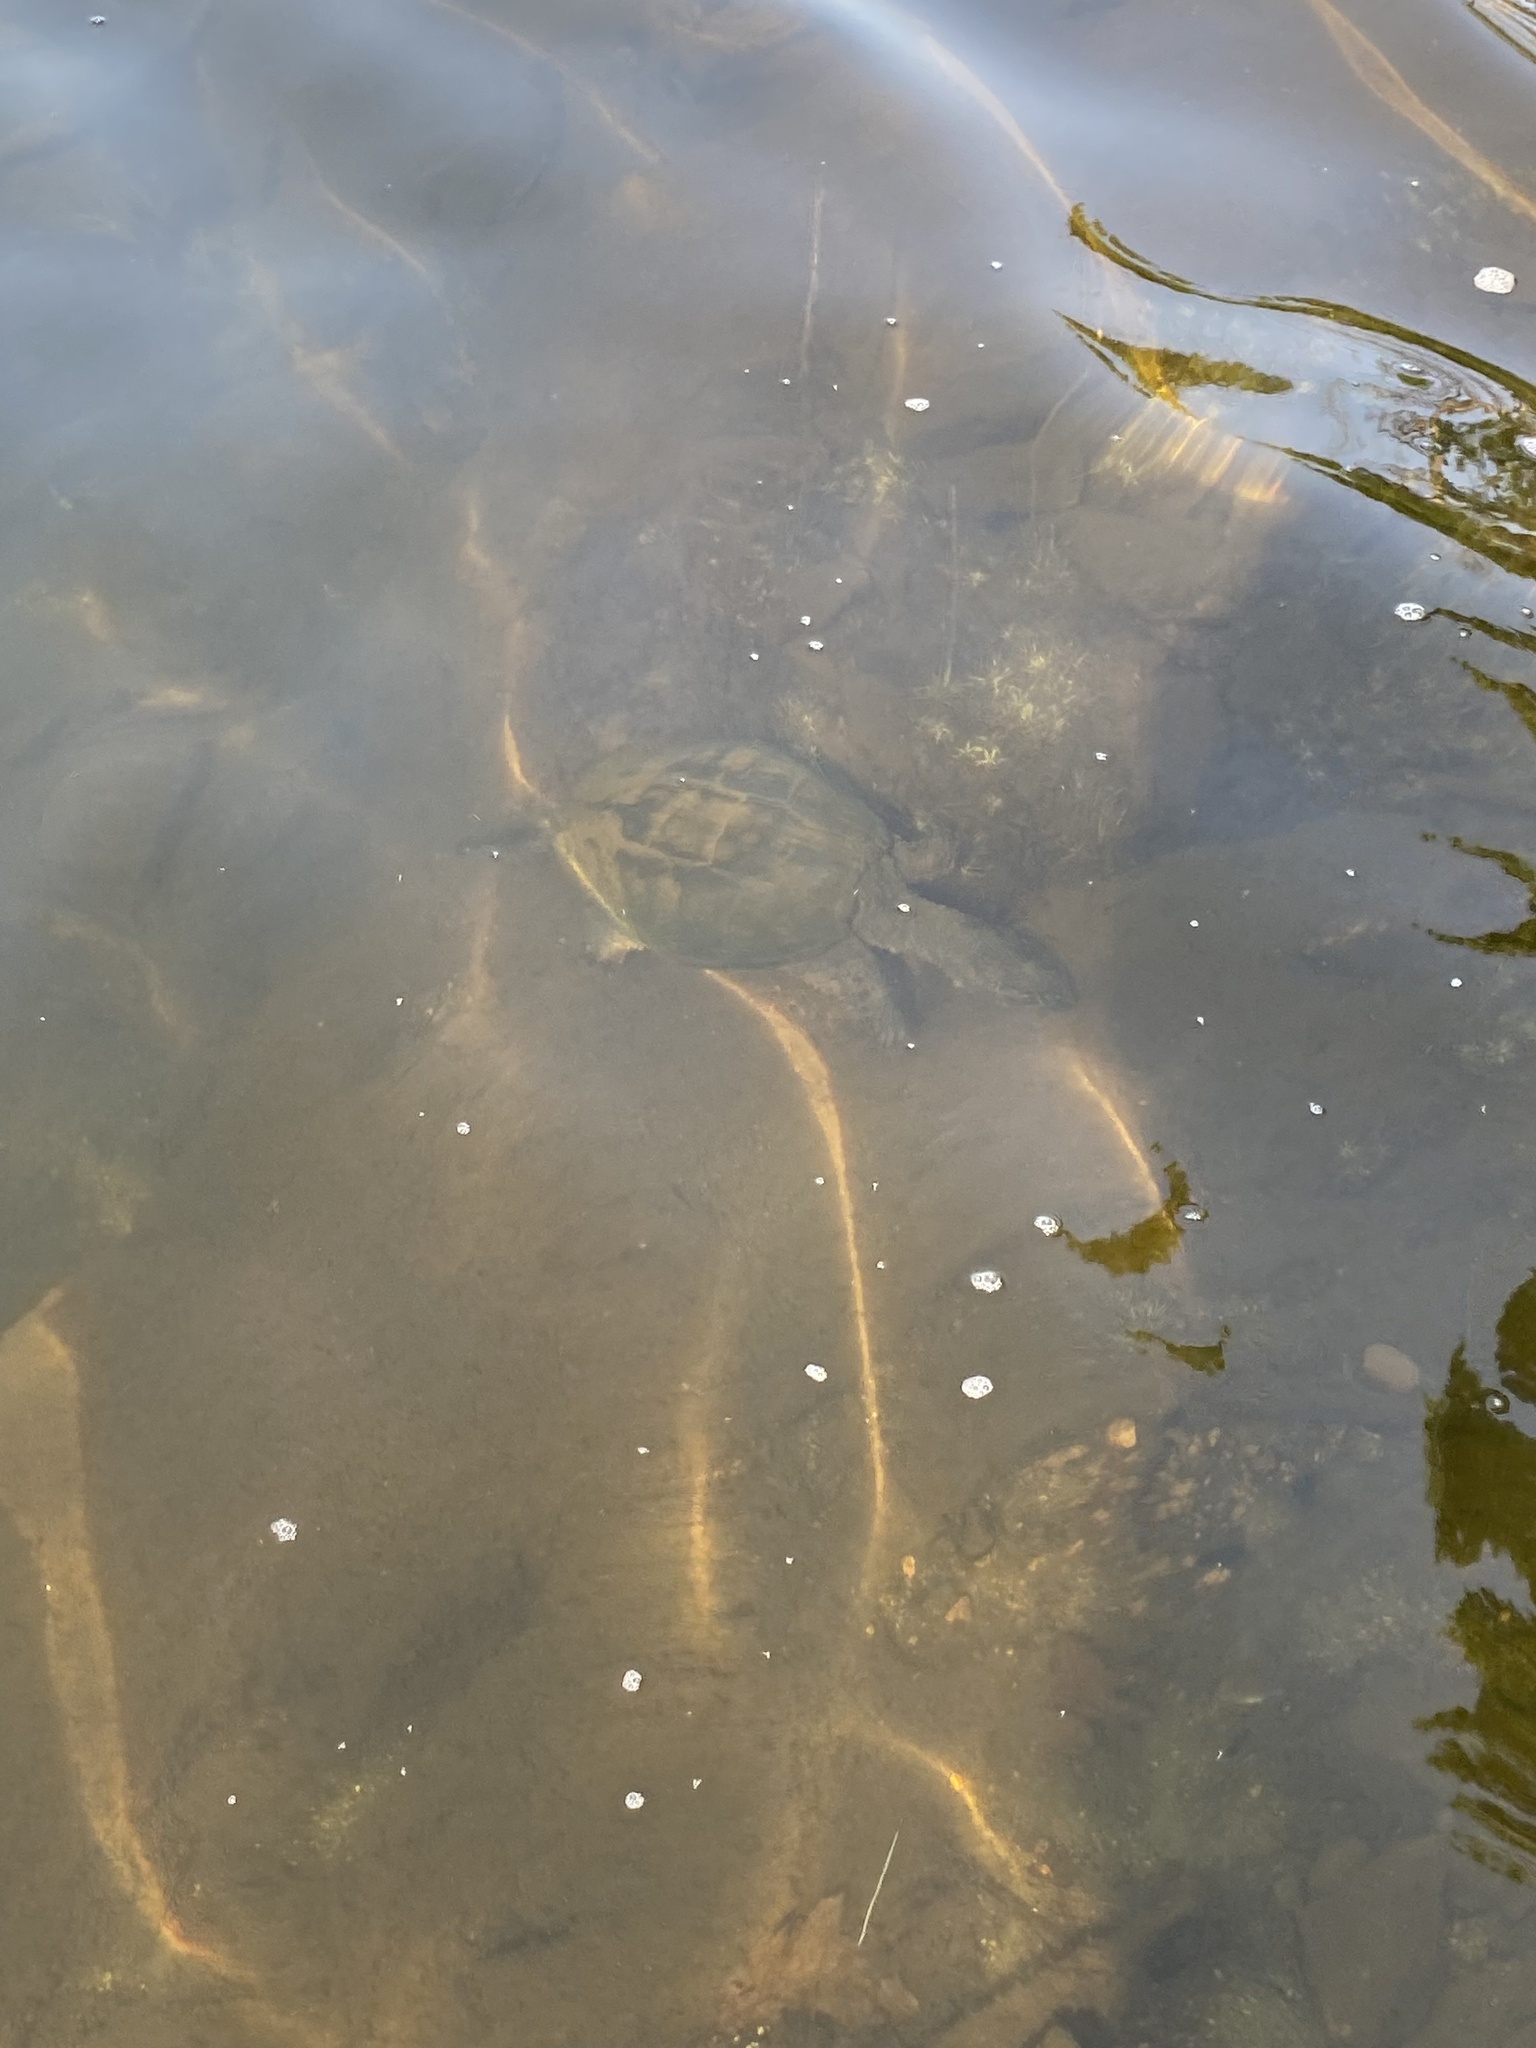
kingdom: Animalia
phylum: Chordata
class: Testudines
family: Chelydridae
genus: Chelydra
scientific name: Chelydra serpentina
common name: Common snapping turtle
